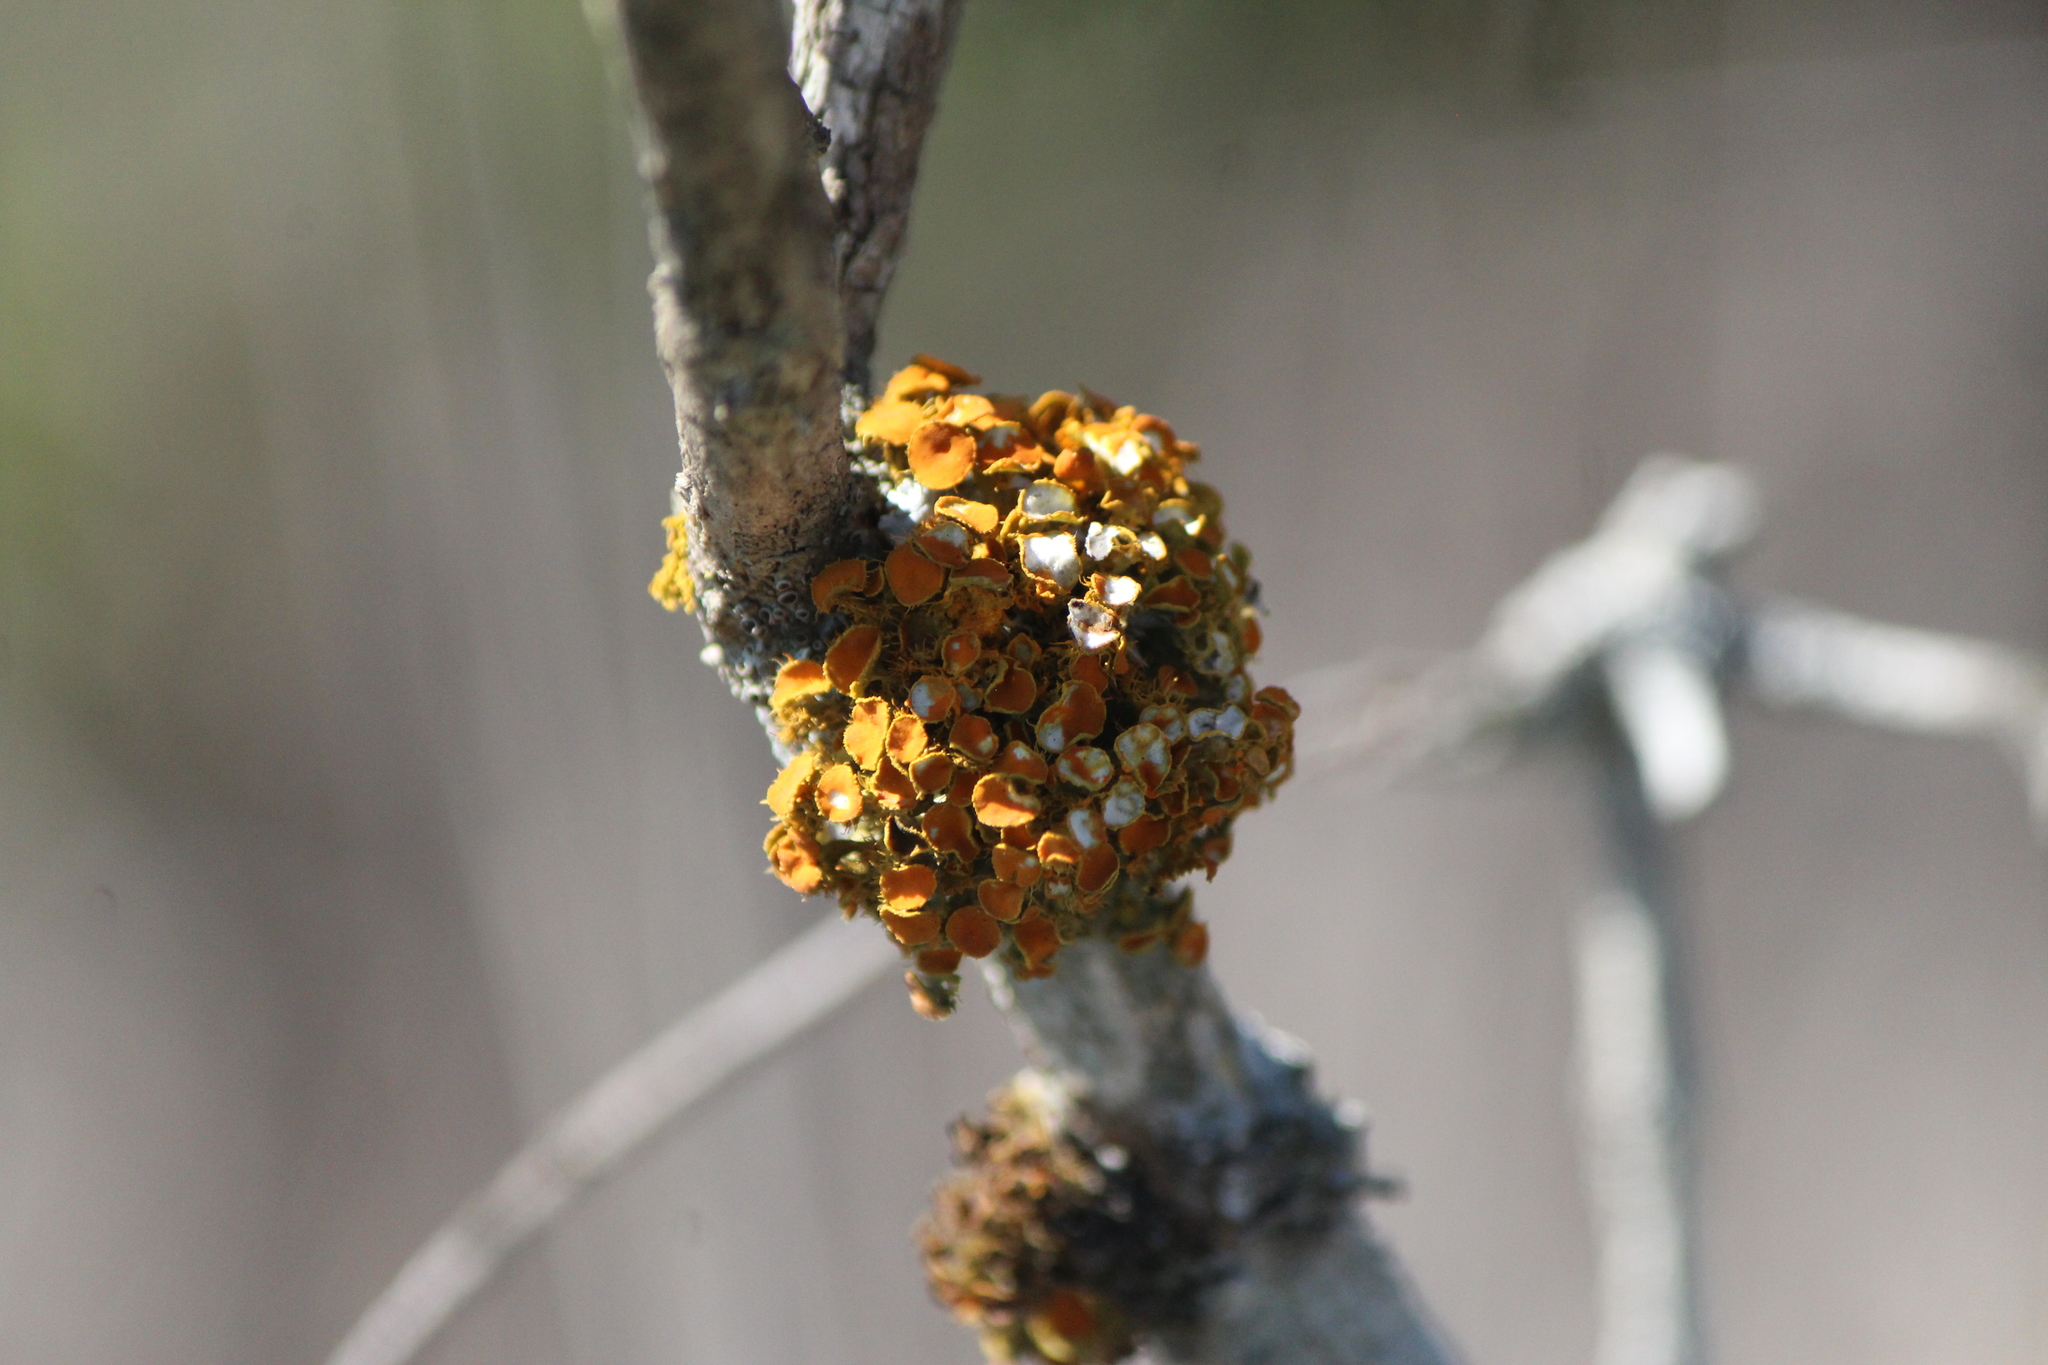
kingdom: Fungi
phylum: Ascomycota
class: Lecanoromycetes
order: Teloschistales
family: Teloschistaceae
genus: Niorma
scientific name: Niorma chrysophthalma
